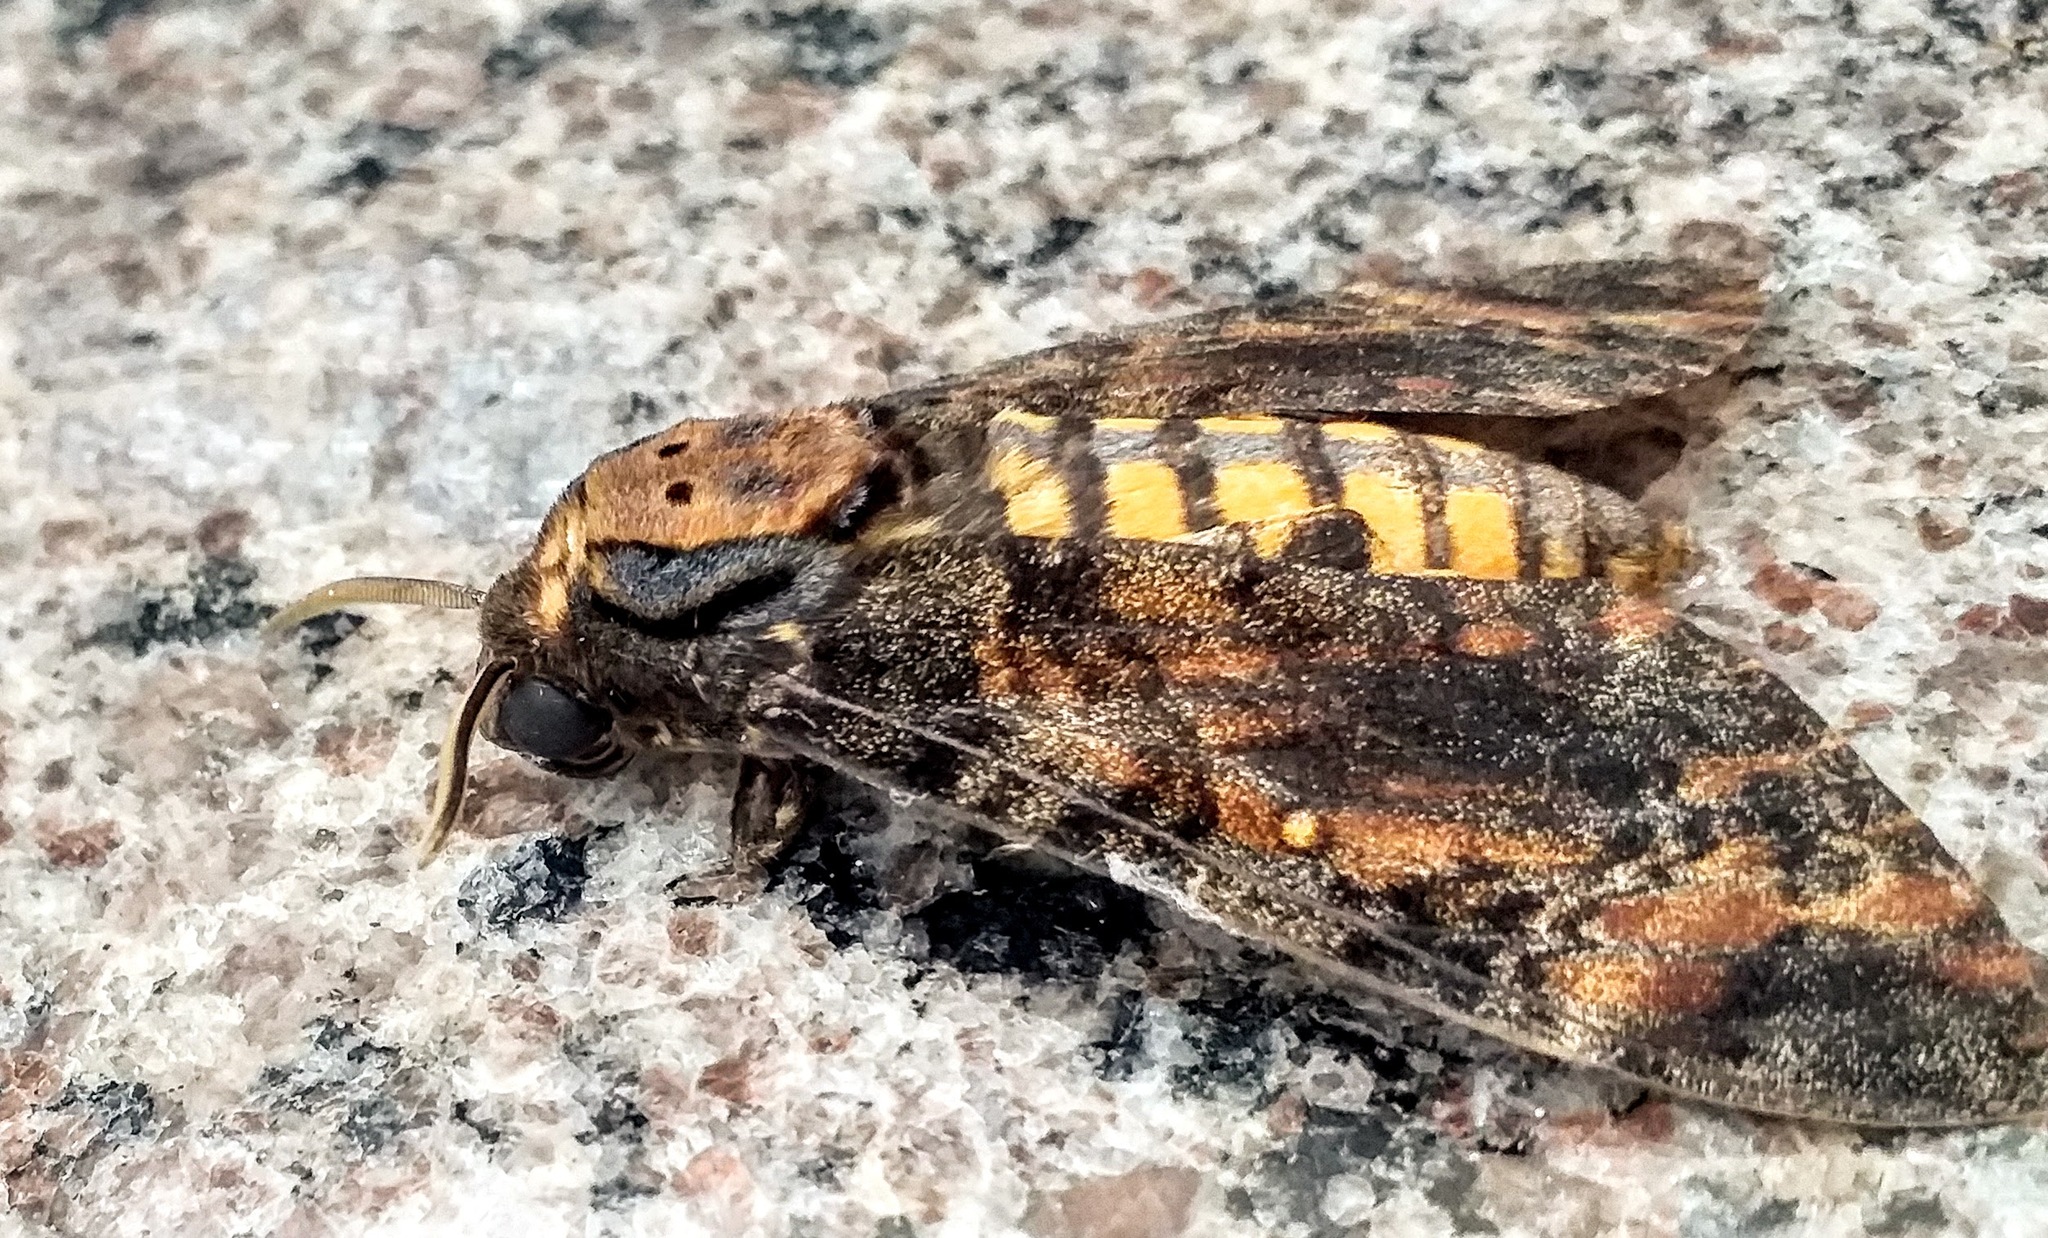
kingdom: Animalia
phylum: Arthropoda
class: Insecta
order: Lepidoptera
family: Sphingidae
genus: Acherontia
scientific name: Acherontia styx
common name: Death's-head hawk moth
